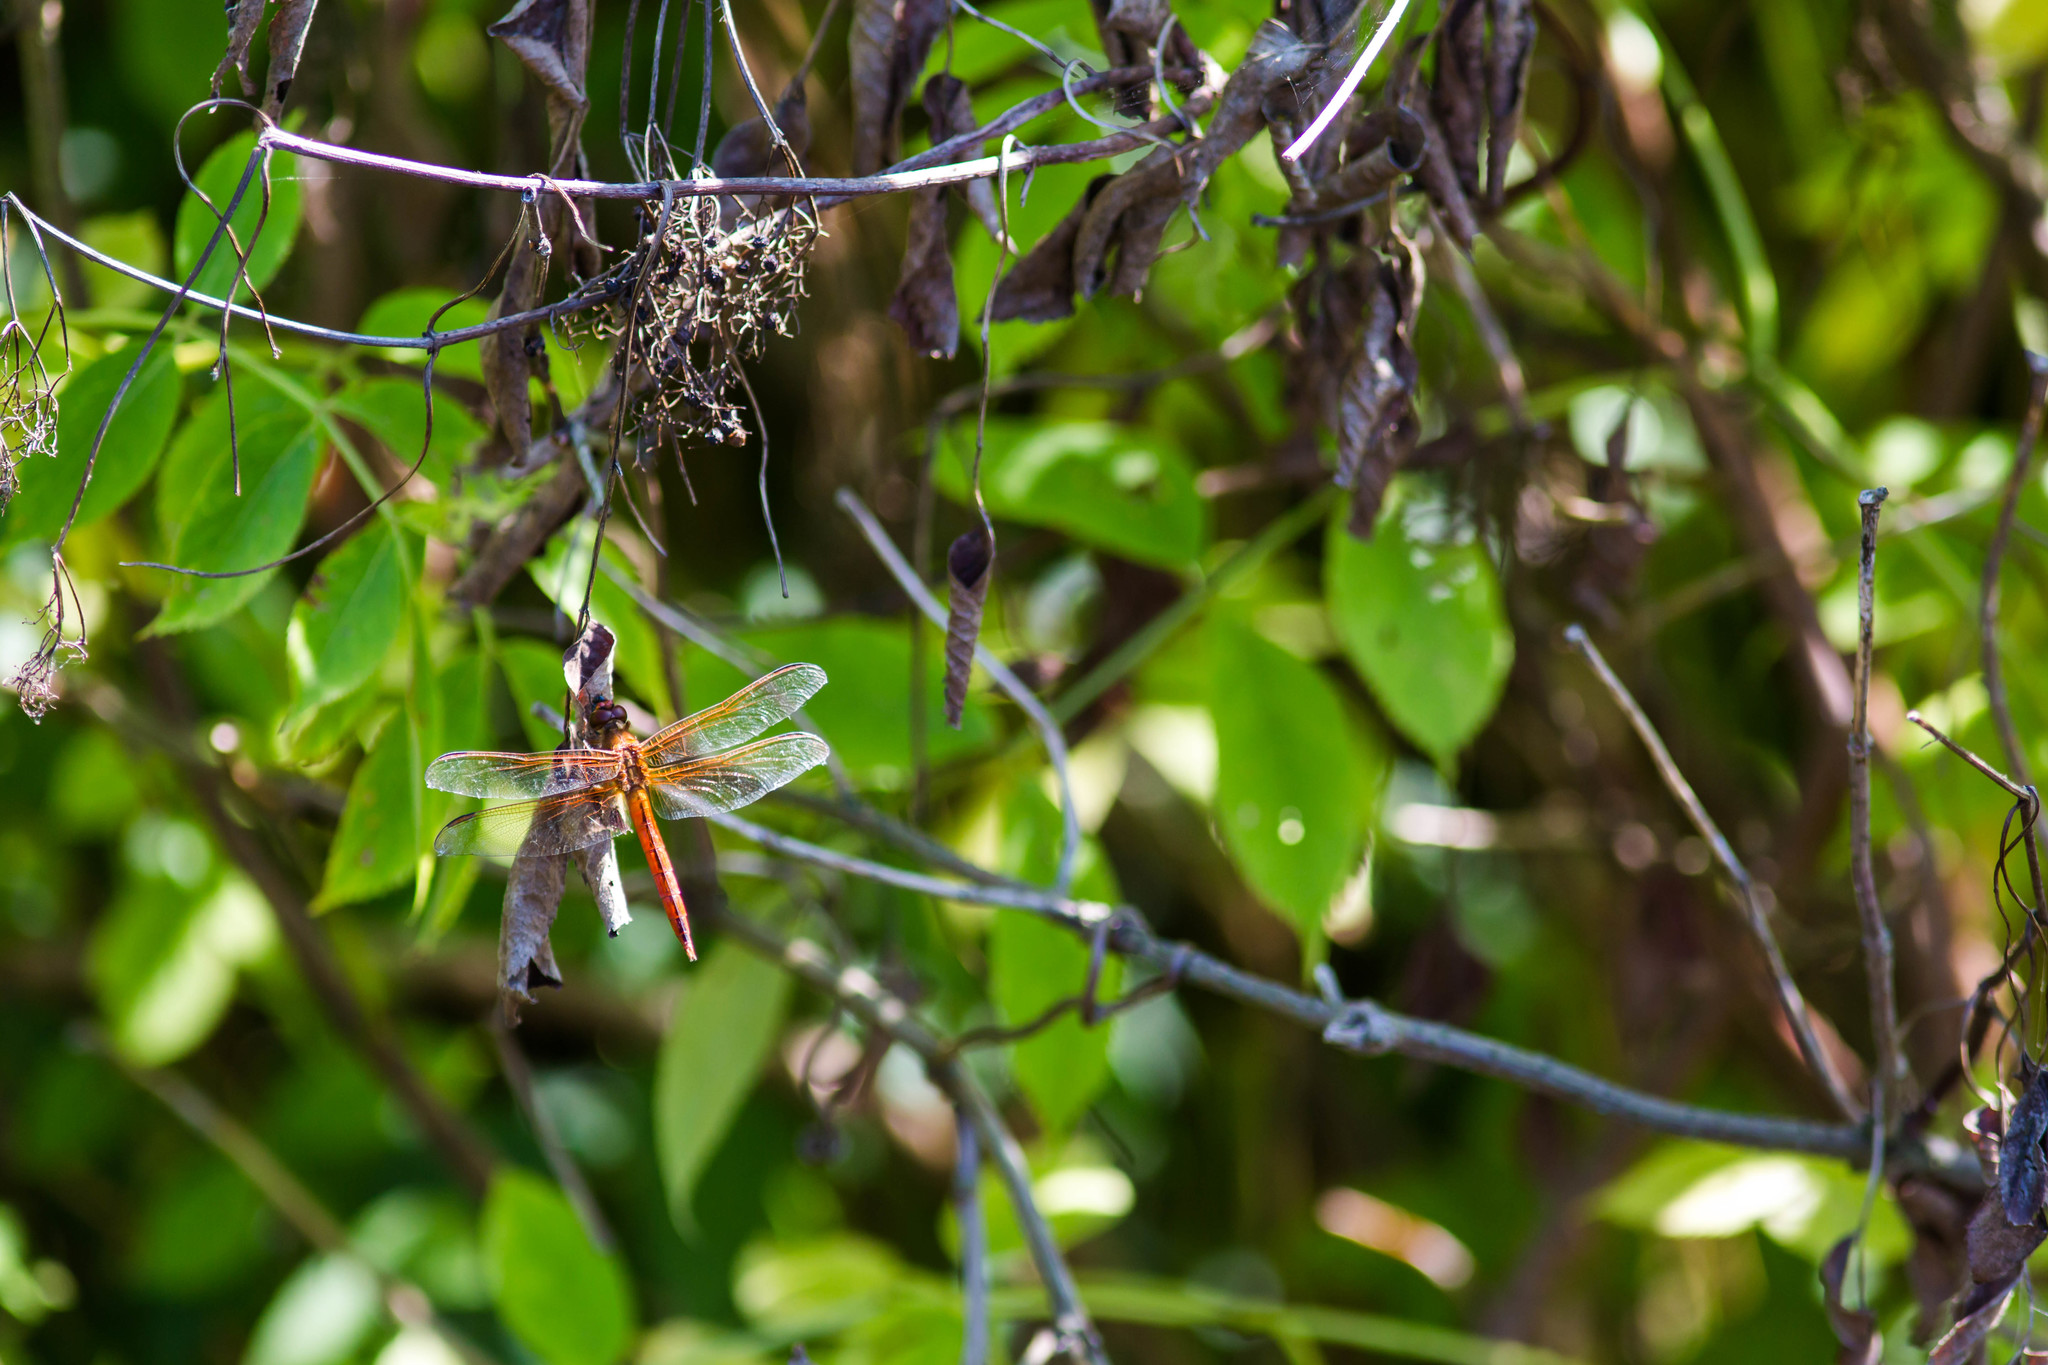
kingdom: Animalia
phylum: Arthropoda
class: Insecta
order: Odonata
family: Libellulidae
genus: Libellula
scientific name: Libellula needhami
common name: Needham's skimmer
